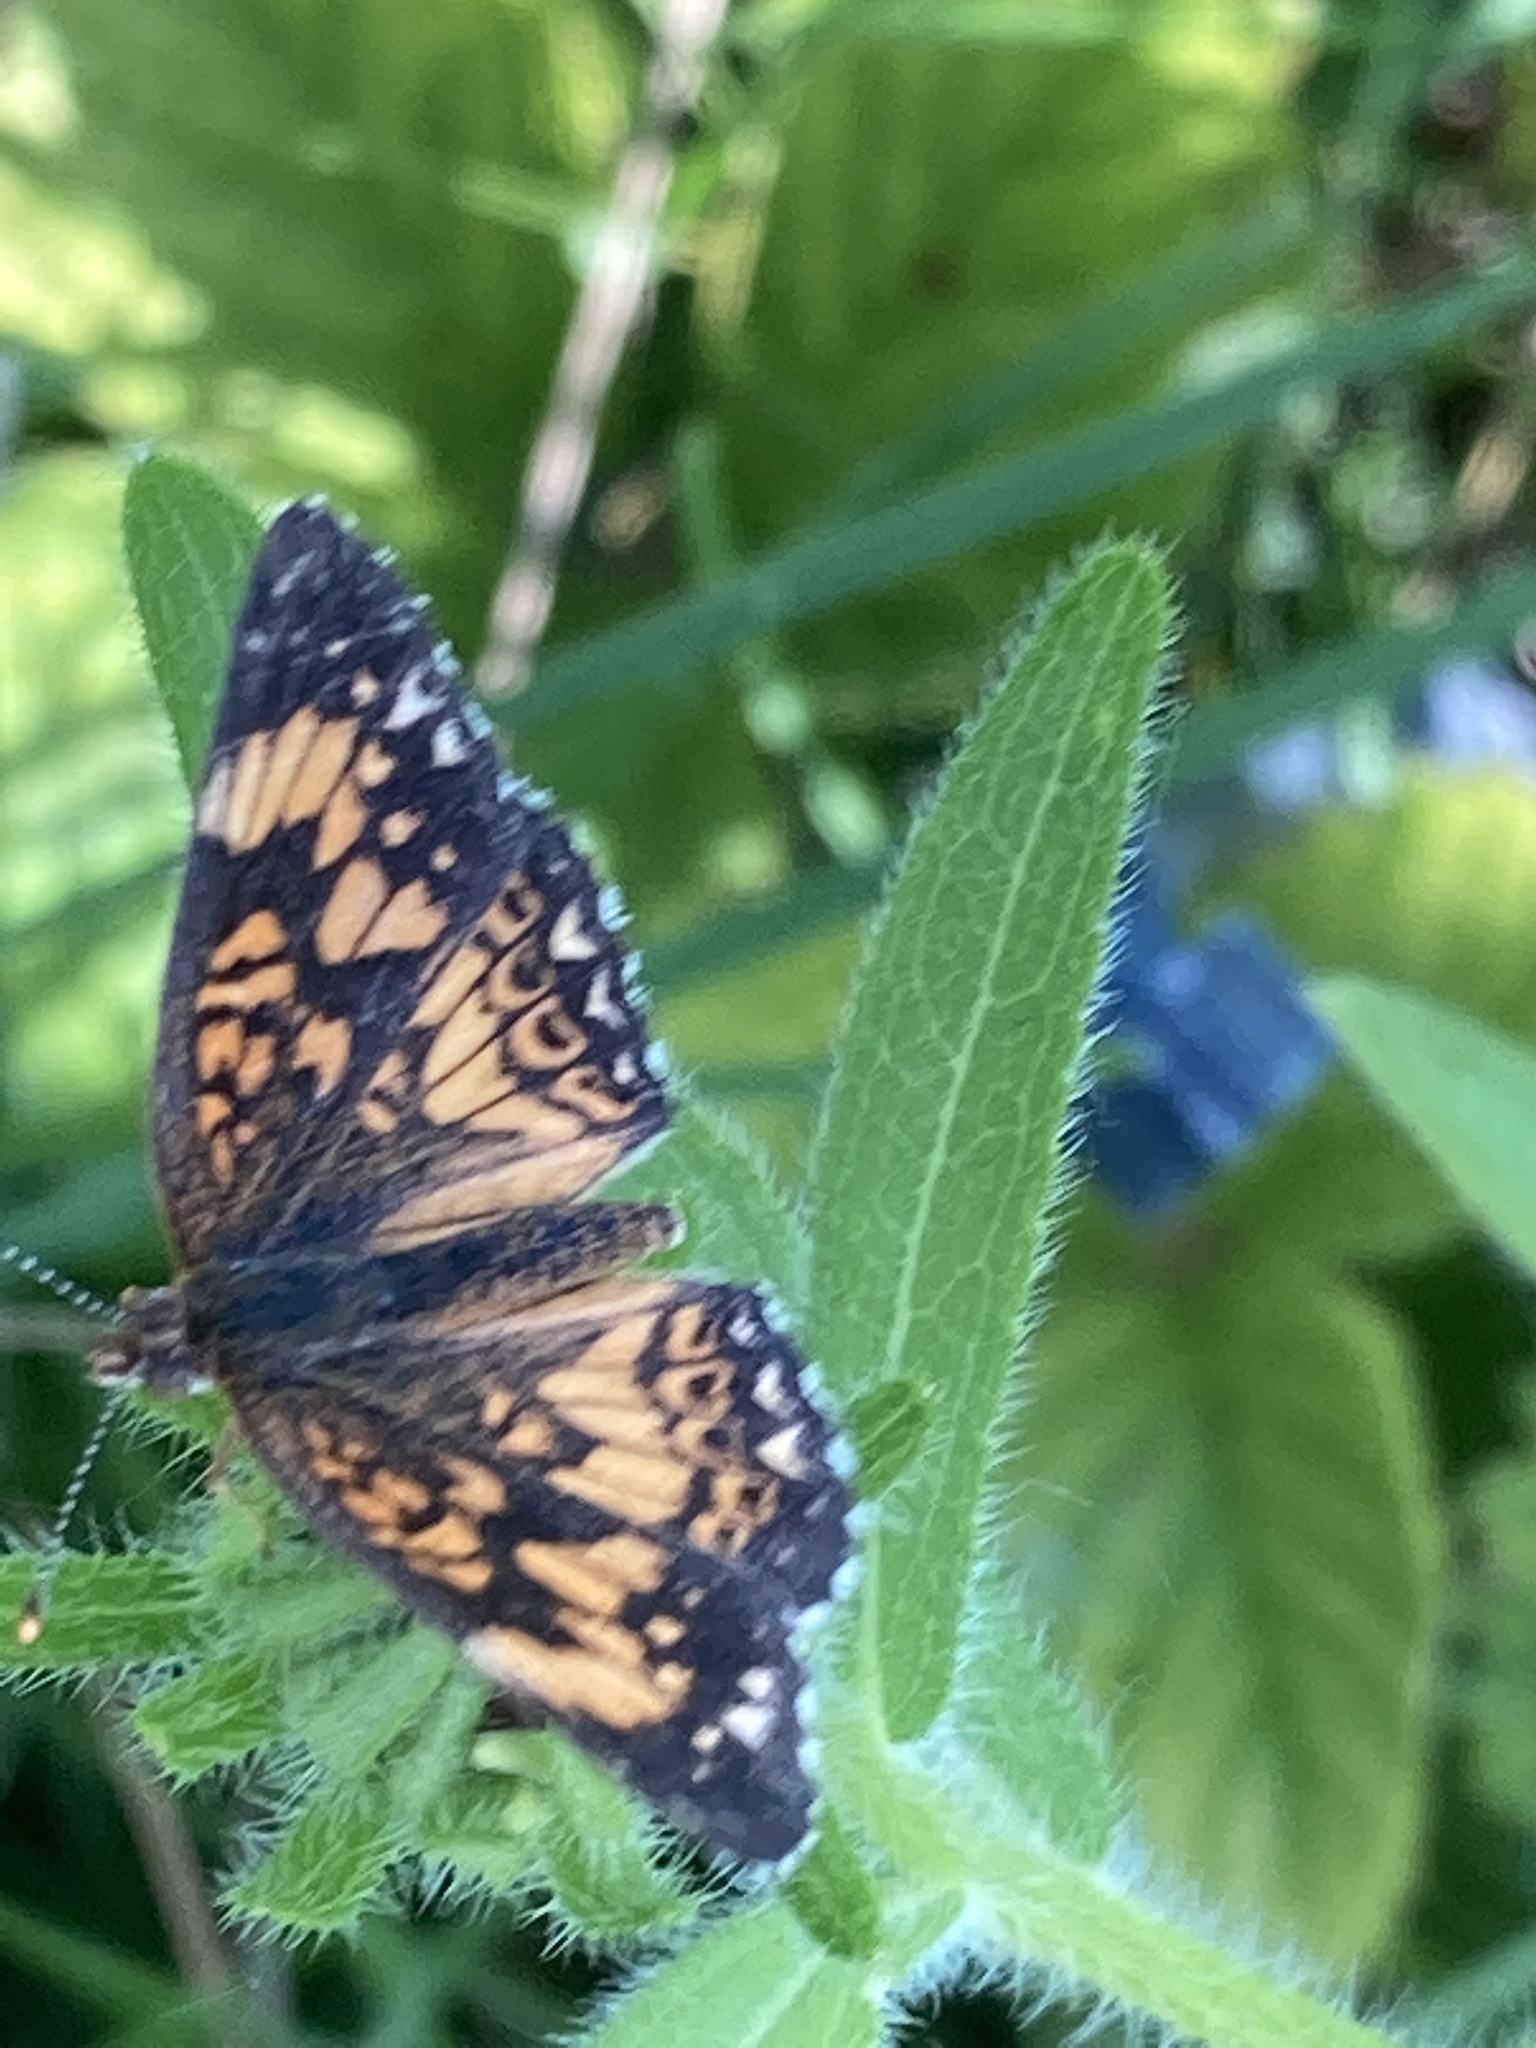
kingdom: Animalia
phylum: Arthropoda
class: Insecta
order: Lepidoptera
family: Nymphalidae
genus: Chlosyne
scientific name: Chlosyne gorgone
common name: Gorgone checkerspot
